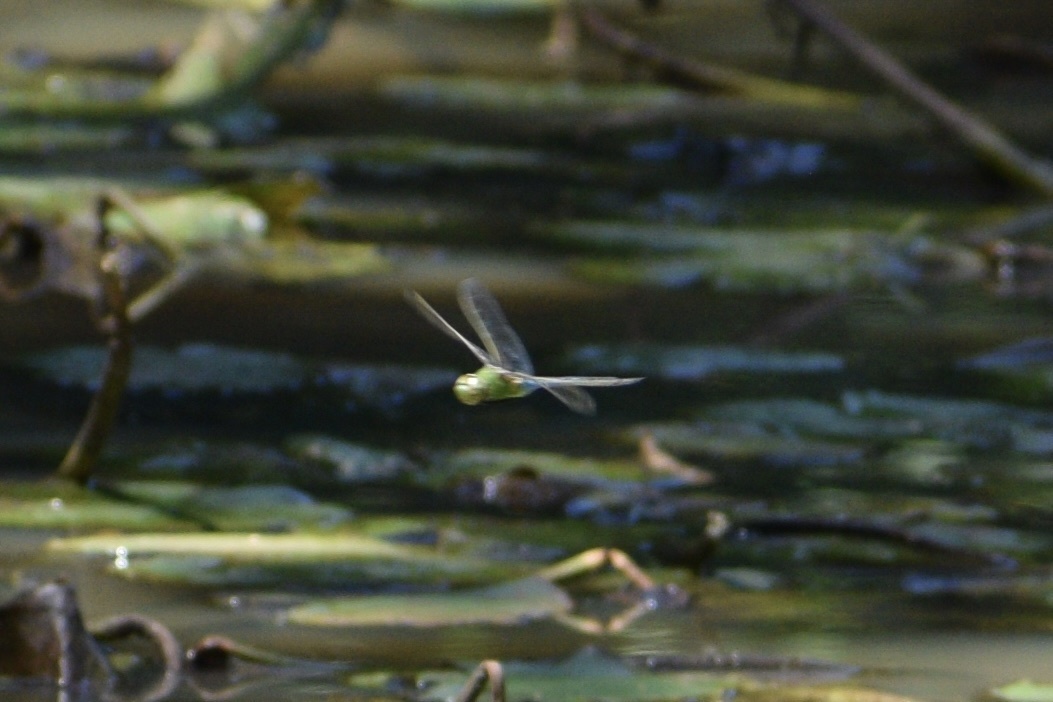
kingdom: Animalia
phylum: Arthropoda
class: Insecta
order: Odonata
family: Aeshnidae
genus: Anax
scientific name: Anax junius
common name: Common green darner
